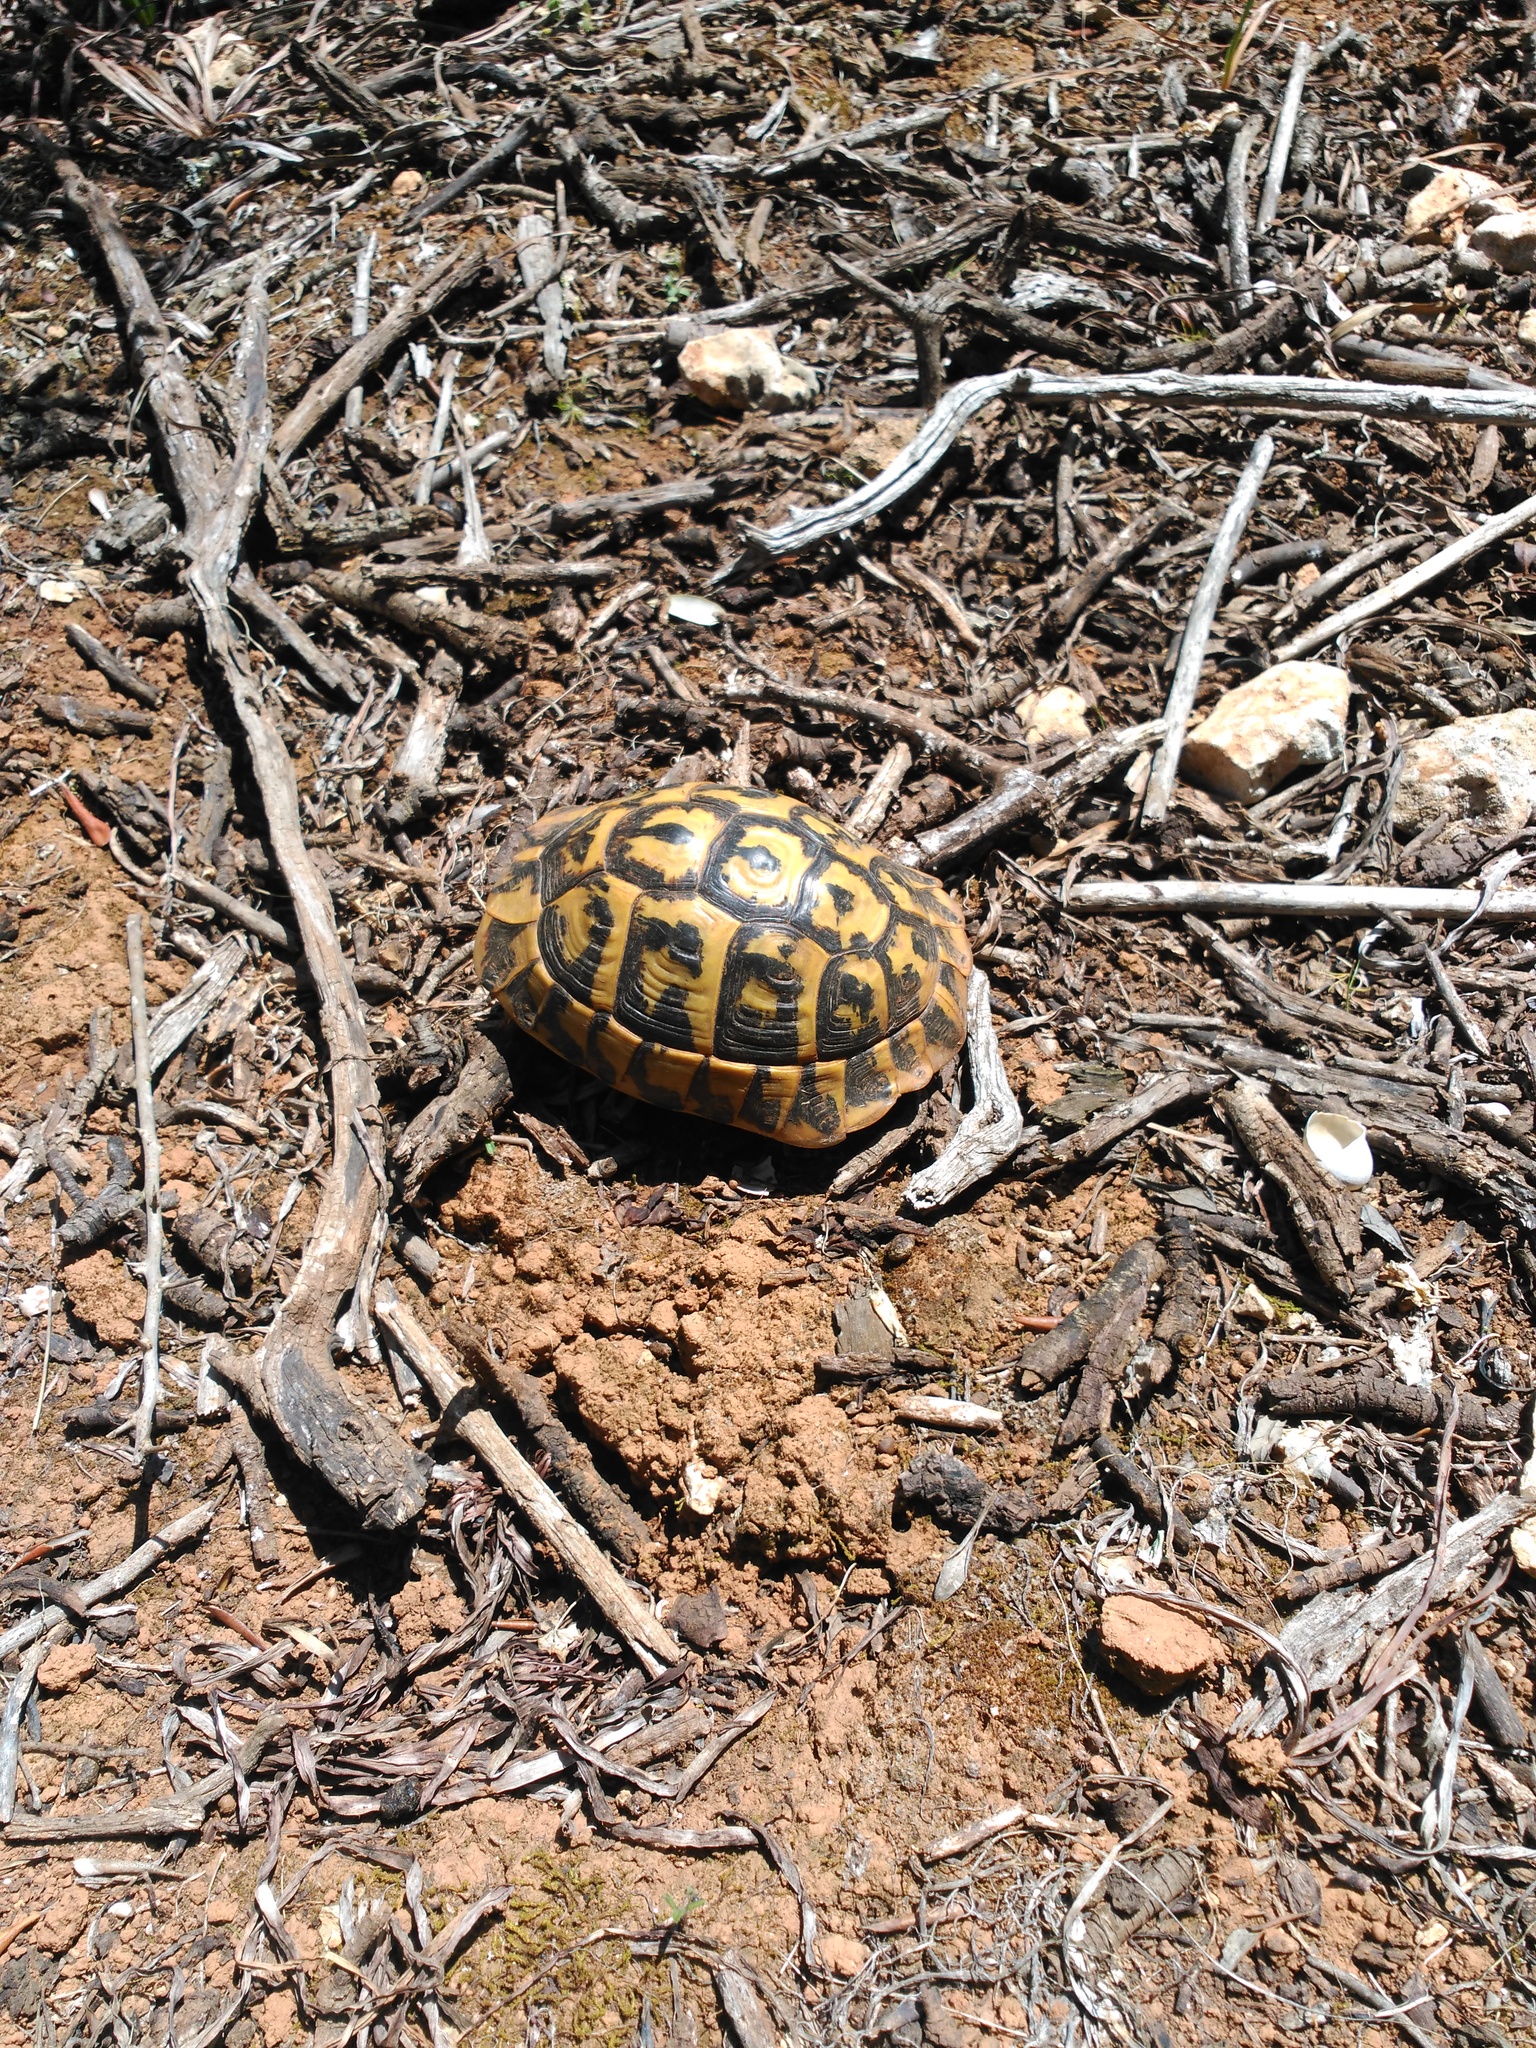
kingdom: Animalia
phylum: Chordata
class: Testudines
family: Testudinidae
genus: Testudo
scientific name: Testudo hermanni
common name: Hermann's tortoise
